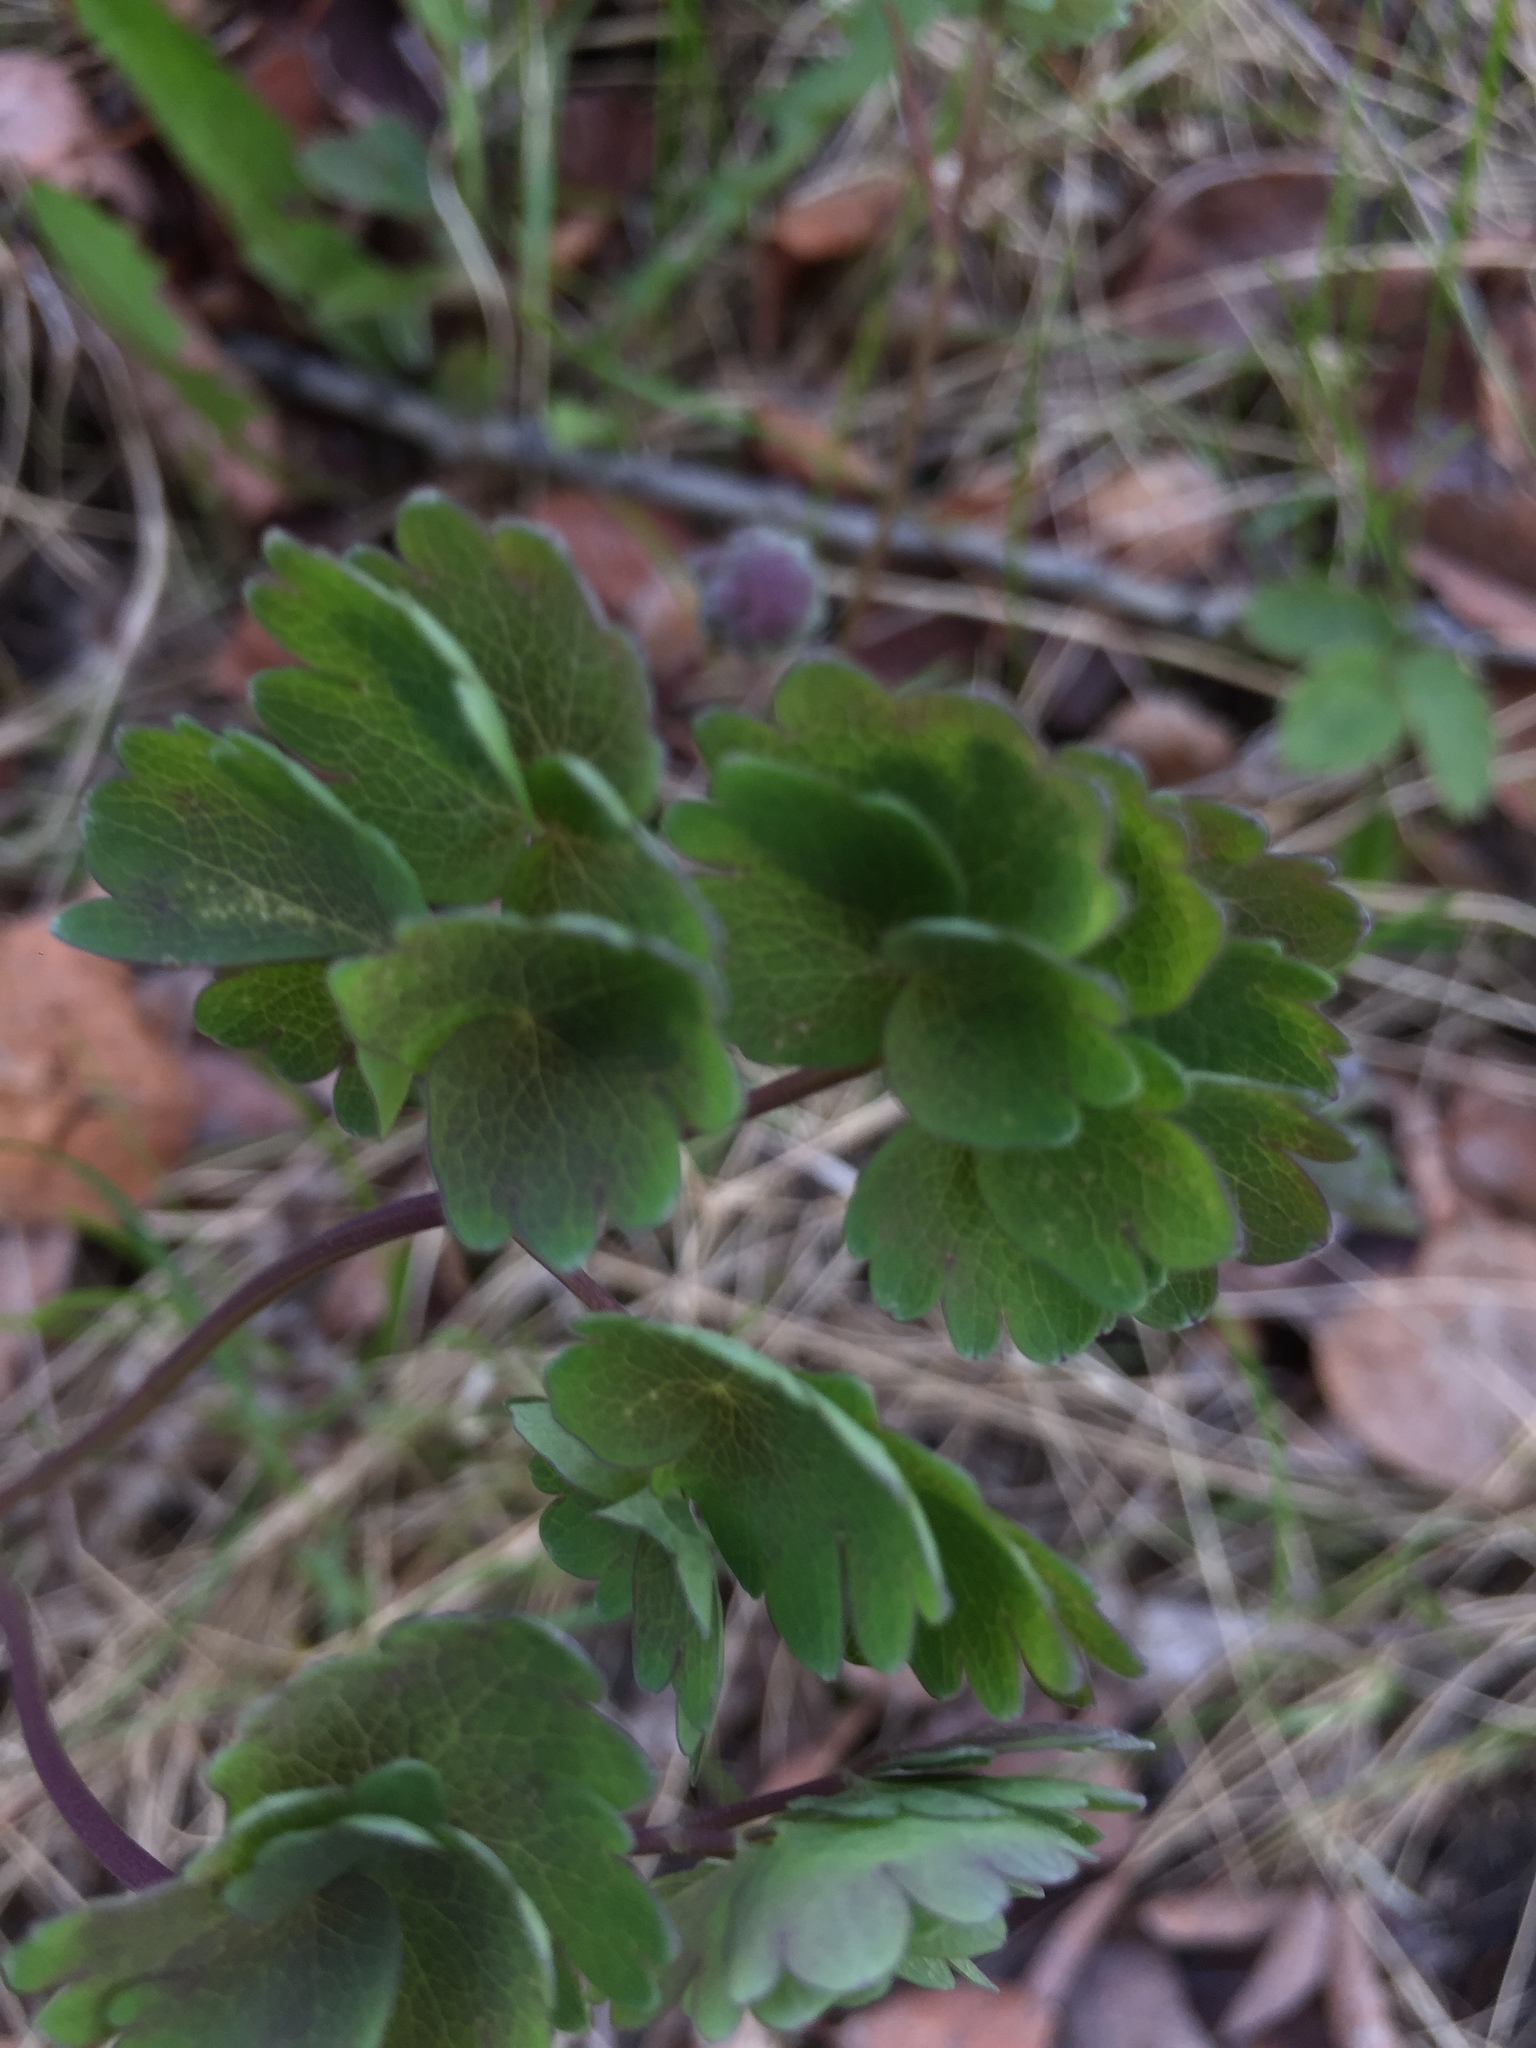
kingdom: Plantae
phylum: Tracheophyta
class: Magnoliopsida
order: Ranunculales
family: Ranunculaceae
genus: Thalictrum
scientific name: Thalictrum venulosum
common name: Early meadow-rue
